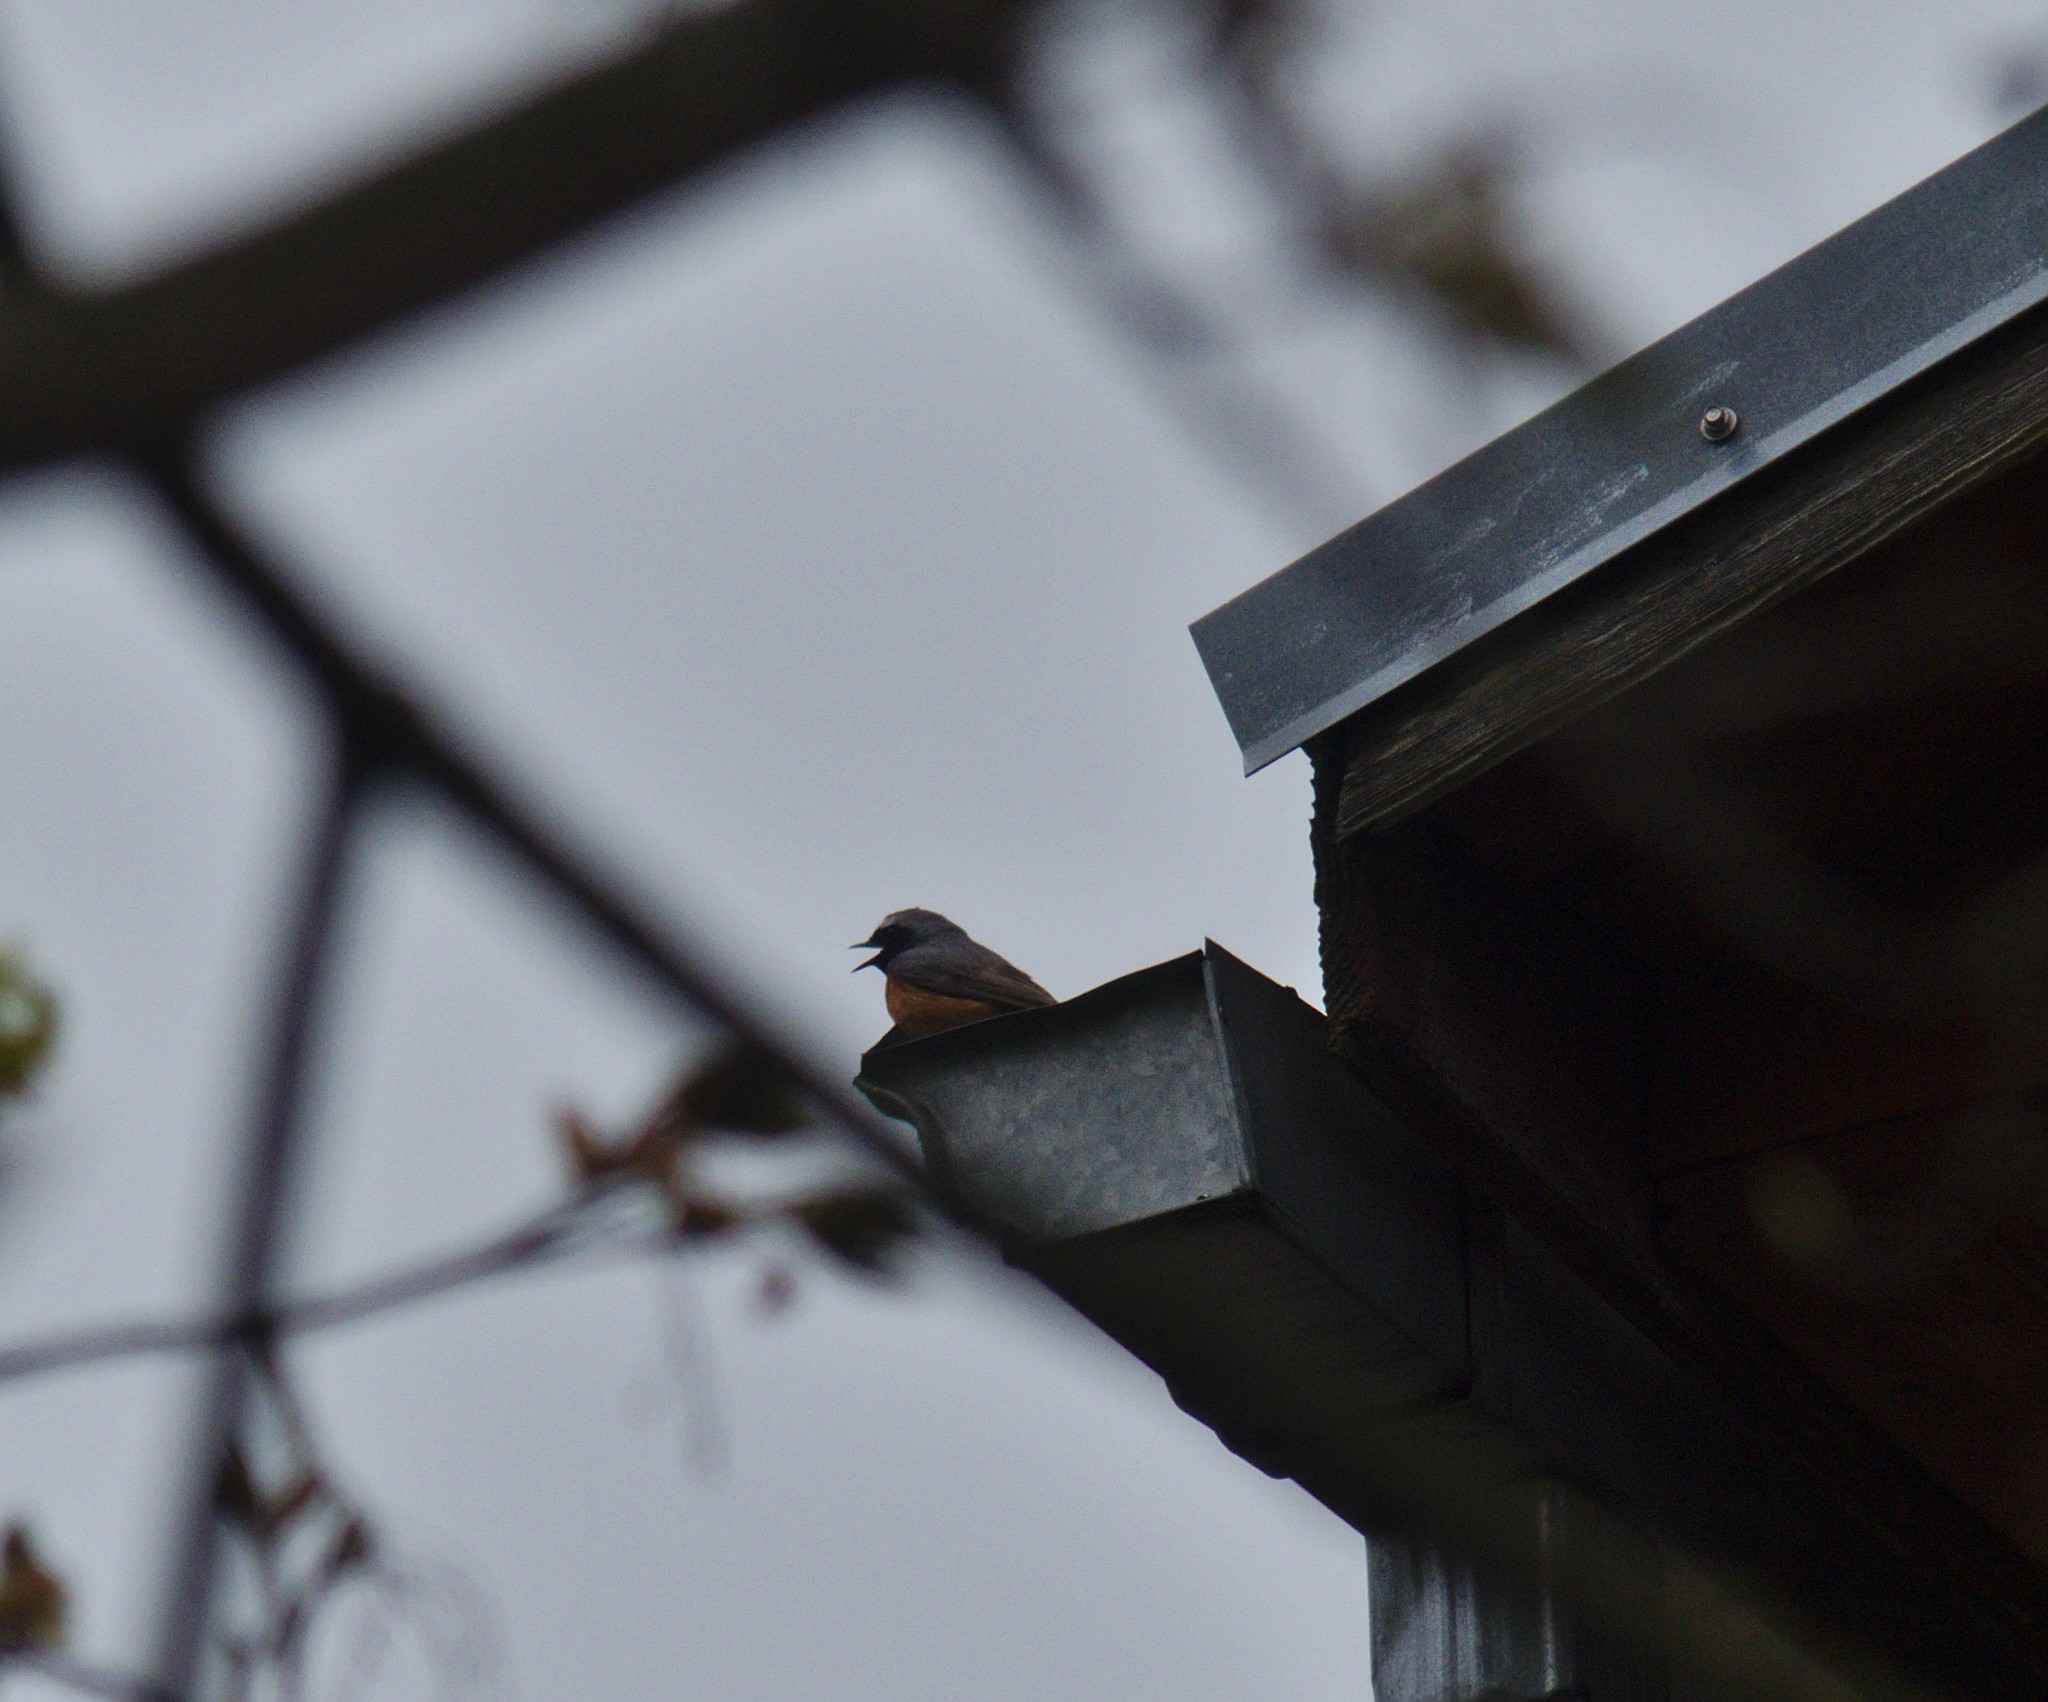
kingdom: Animalia
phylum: Chordata
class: Aves
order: Passeriformes
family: Muscicapidae
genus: Phoenicurus
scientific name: Phoenicurus phoenicurus
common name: Common redstart
